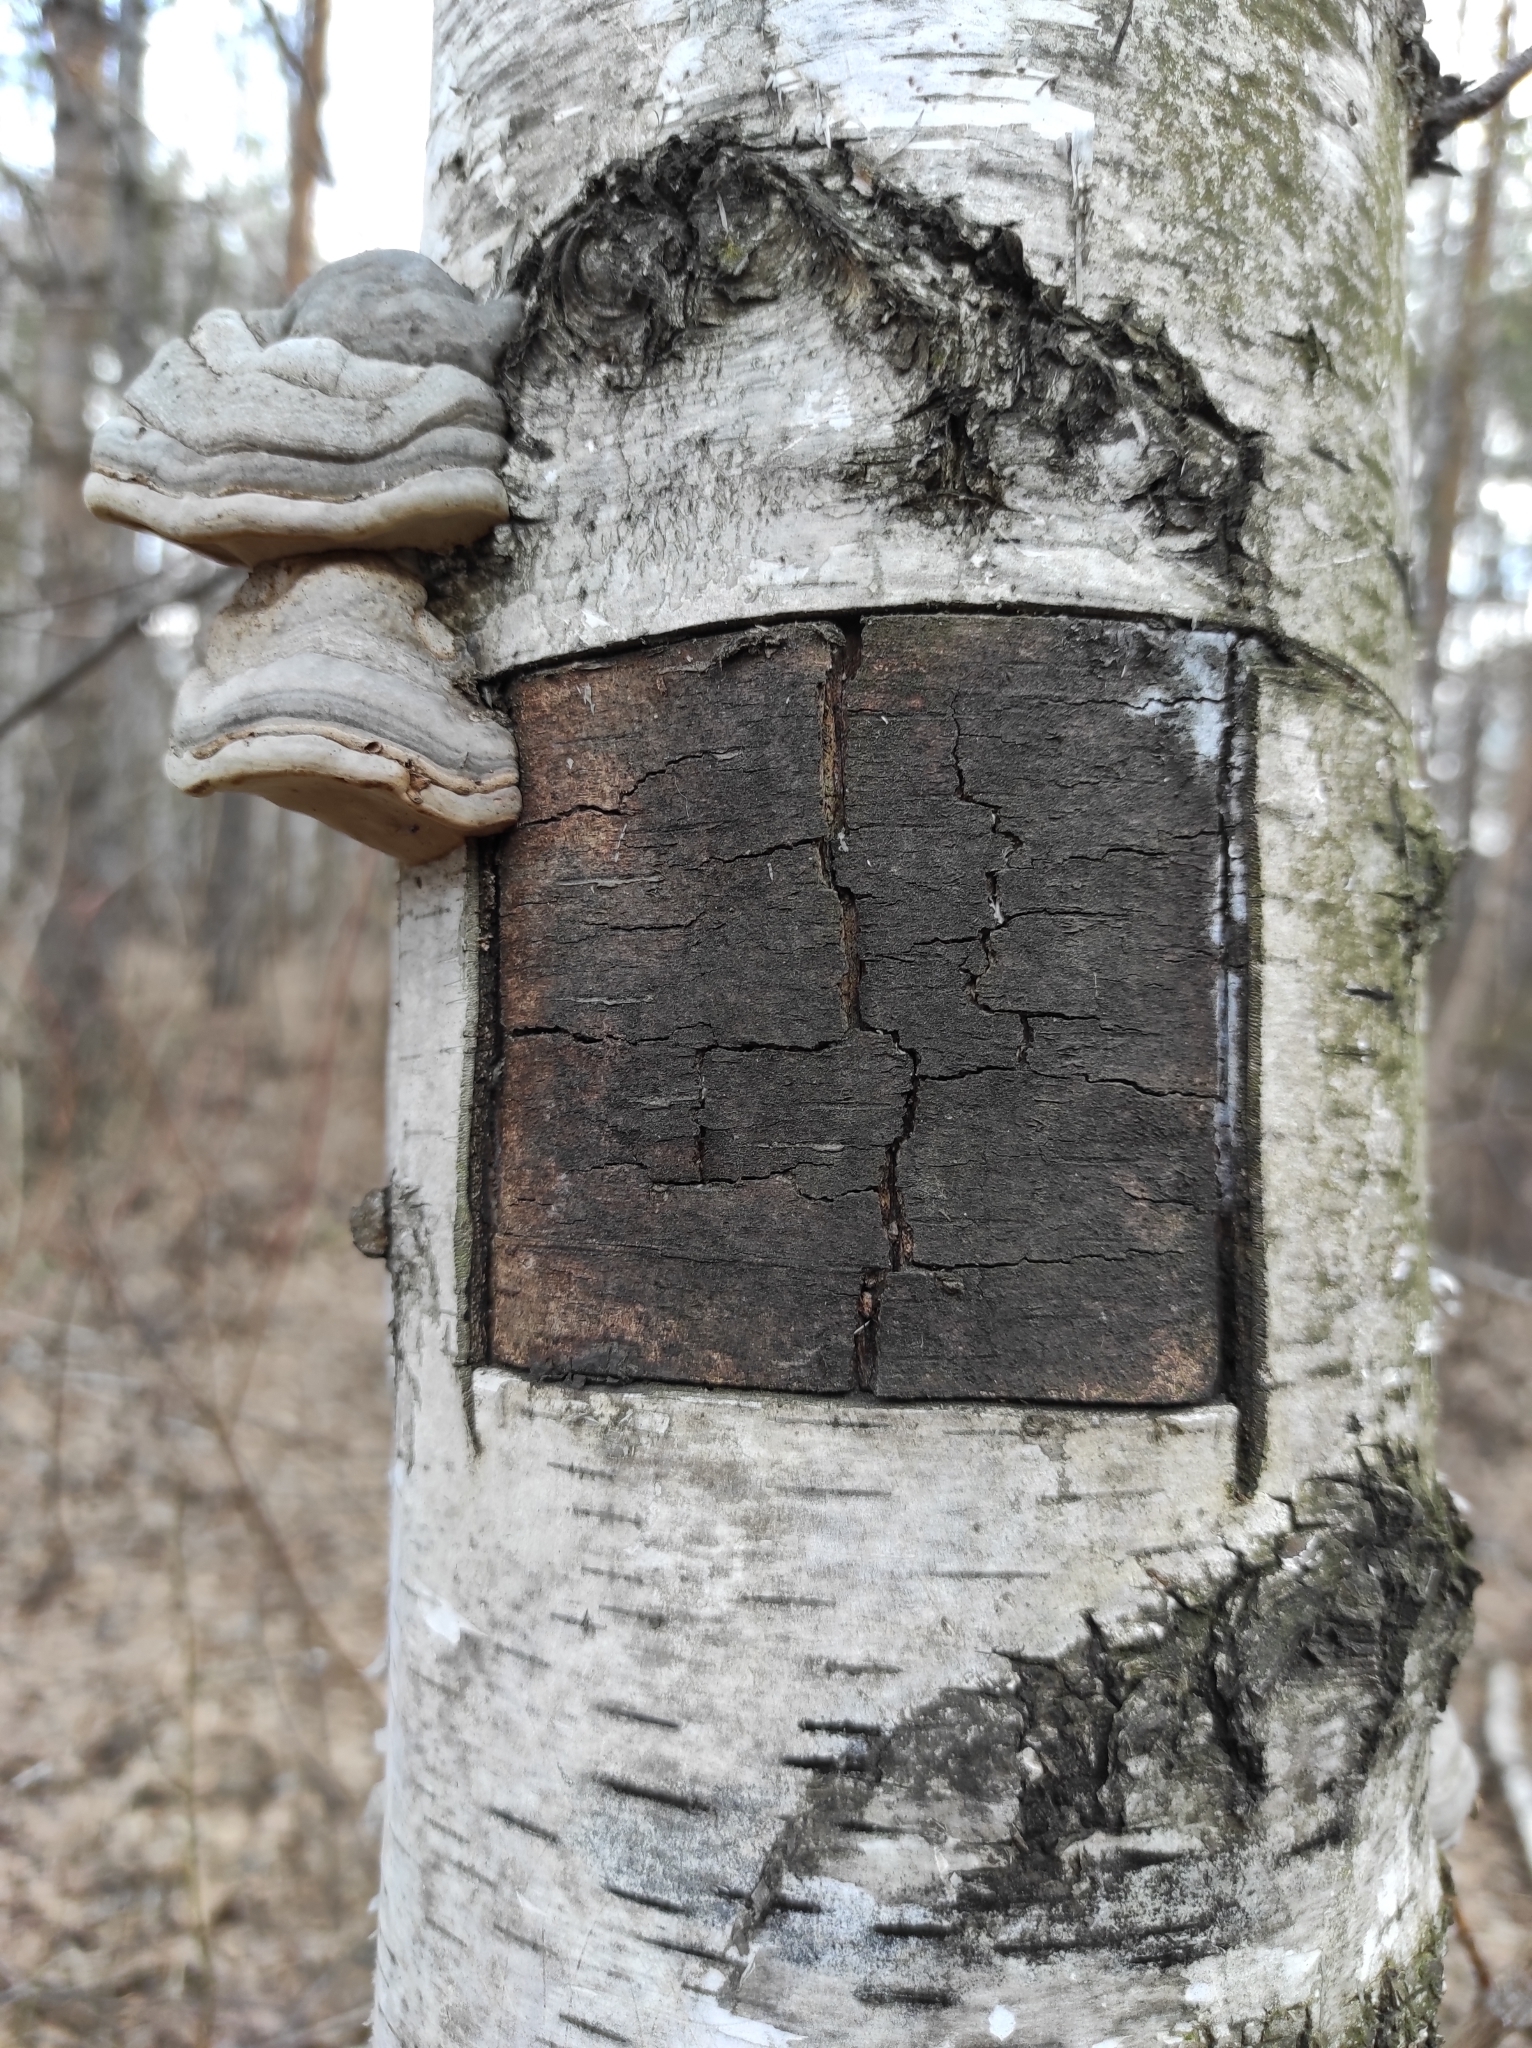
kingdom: Fungi
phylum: Basidiomycota
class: Agaricomycetes
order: Polyporales
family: Polyporaceae
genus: Fomes
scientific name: Fomes fomentarius
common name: Hoof fungus
